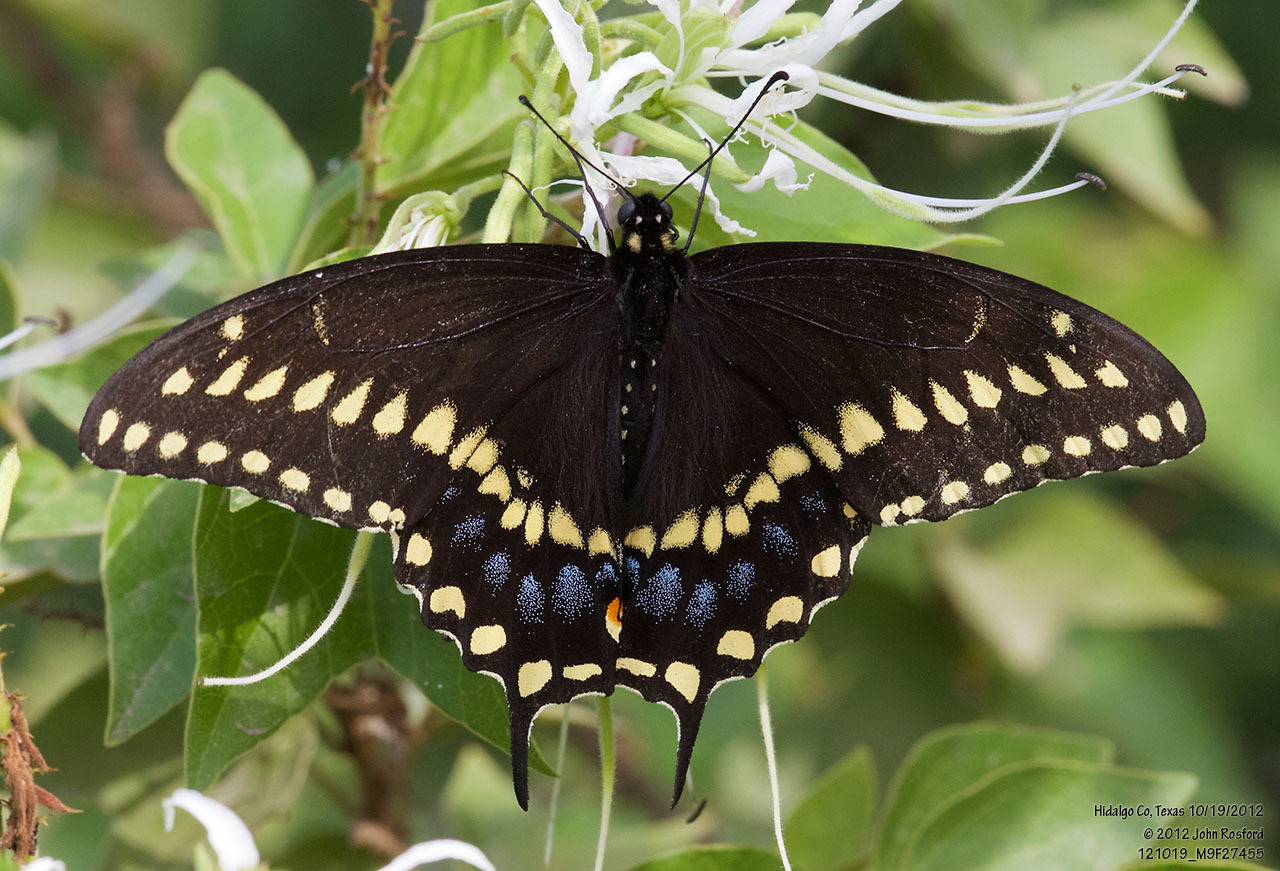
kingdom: Animalia
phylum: Arthropoda
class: Insecta
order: Lepidoptera
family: Papilionidae
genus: Papilio
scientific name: Papilio polyxenes
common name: Black swallowtail
